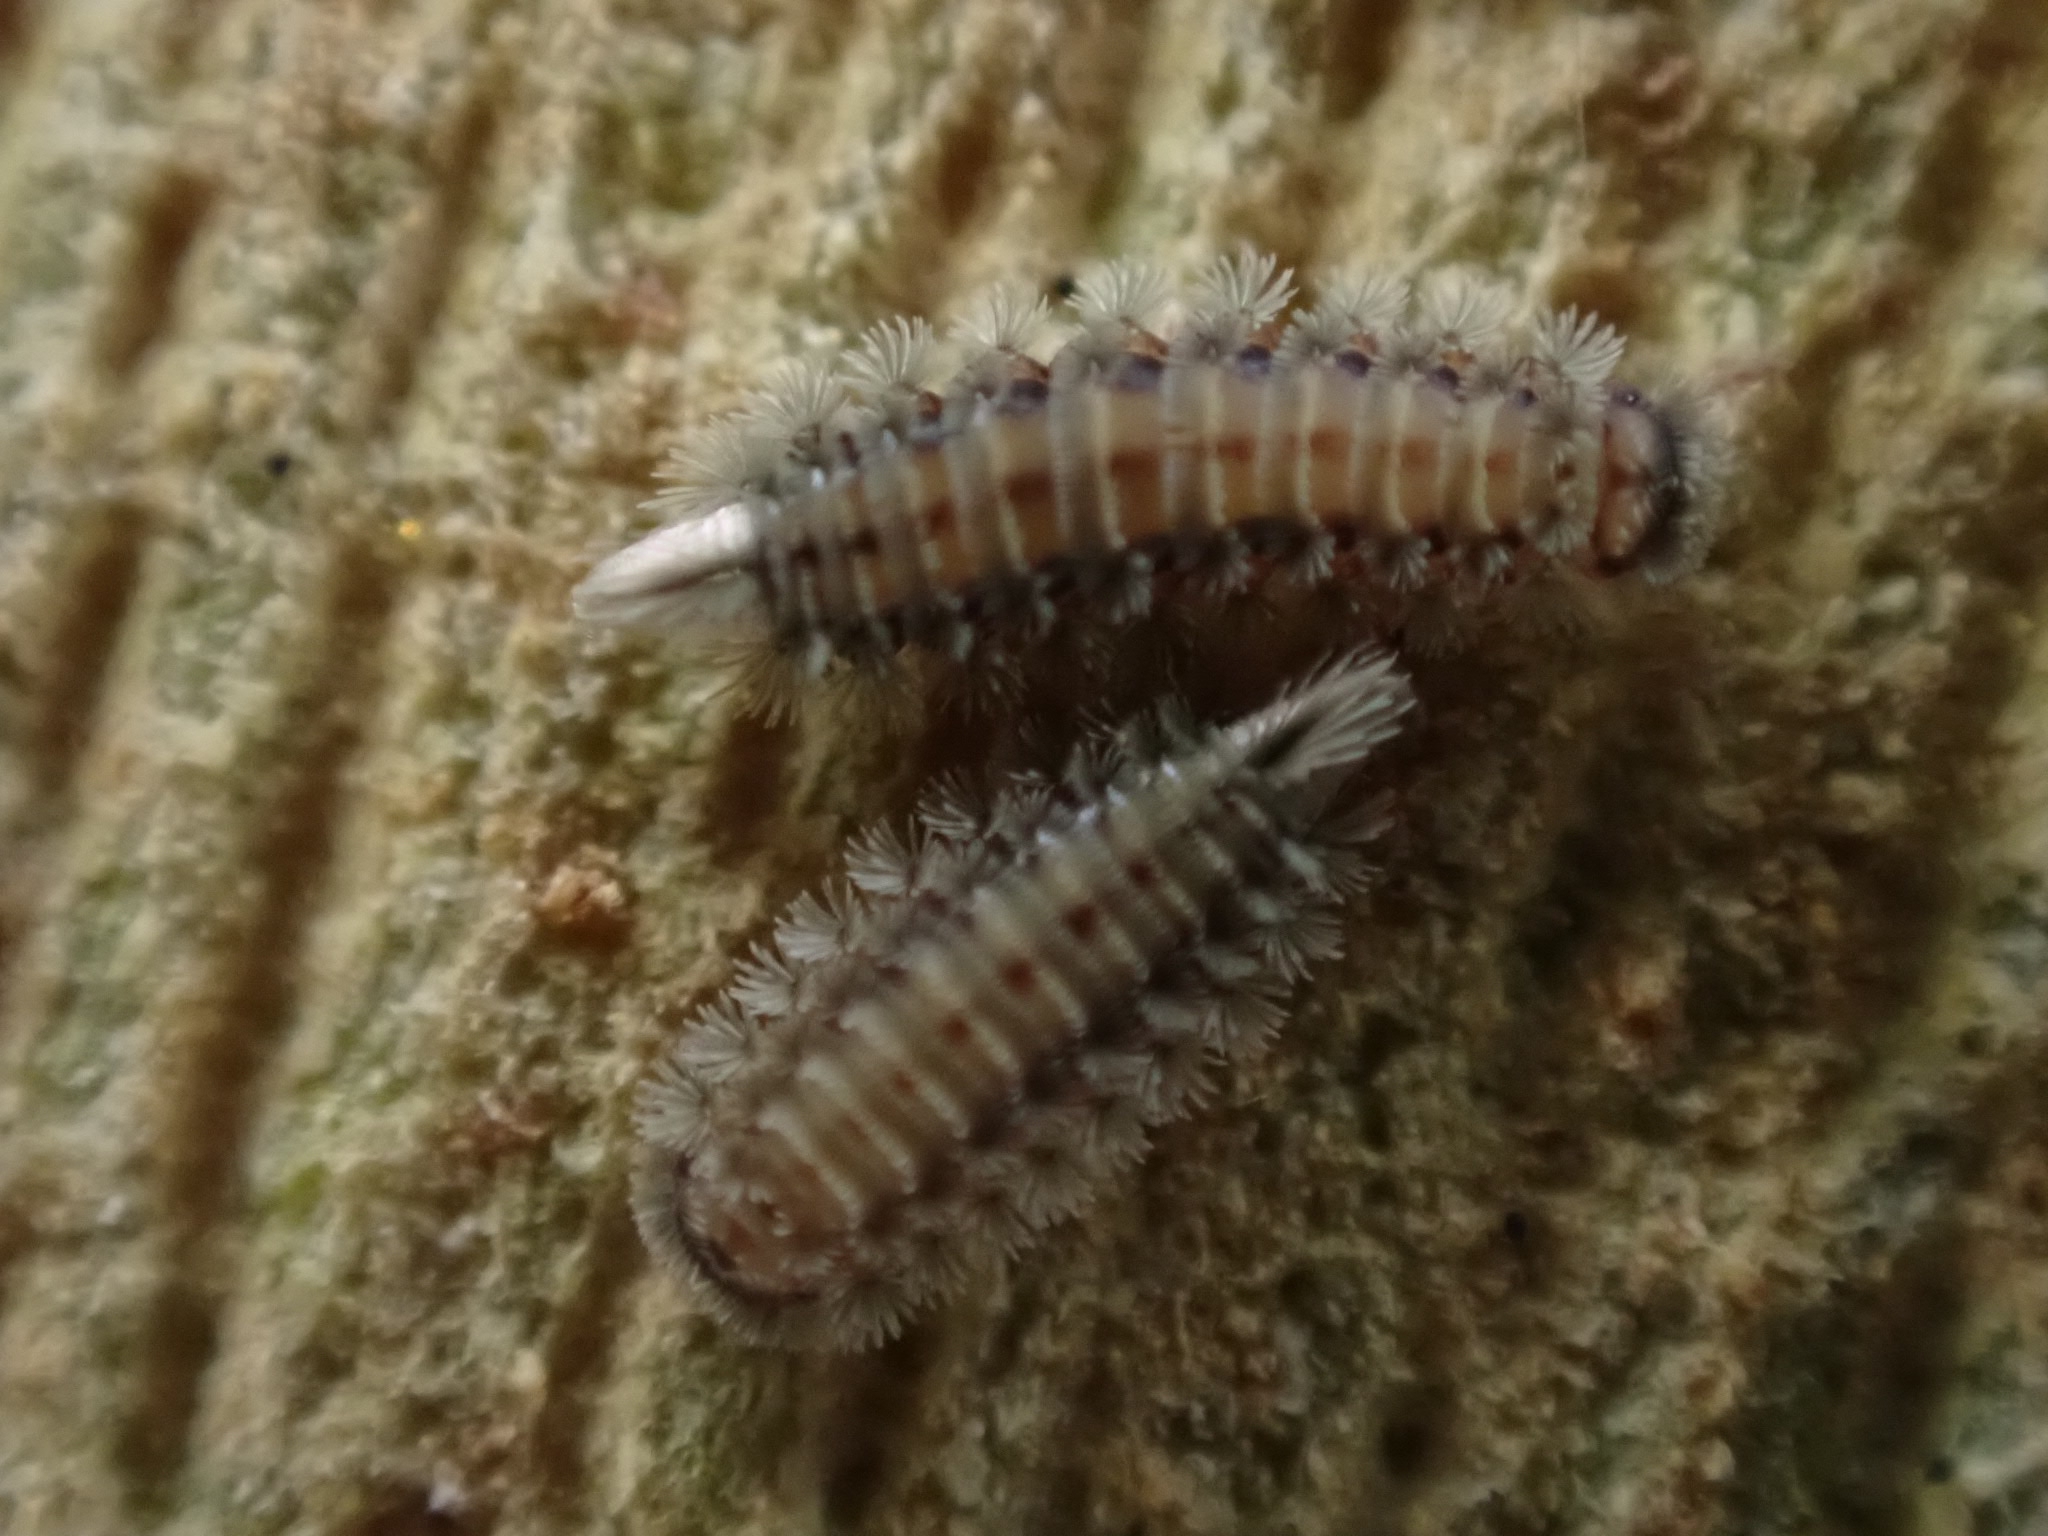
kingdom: Animalia
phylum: Arthropoda
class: Diplopoda
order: Polyxenida
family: Polyxenidae
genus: Polyxenus
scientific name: Polyxenus lagurus
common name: Bristly millipede
